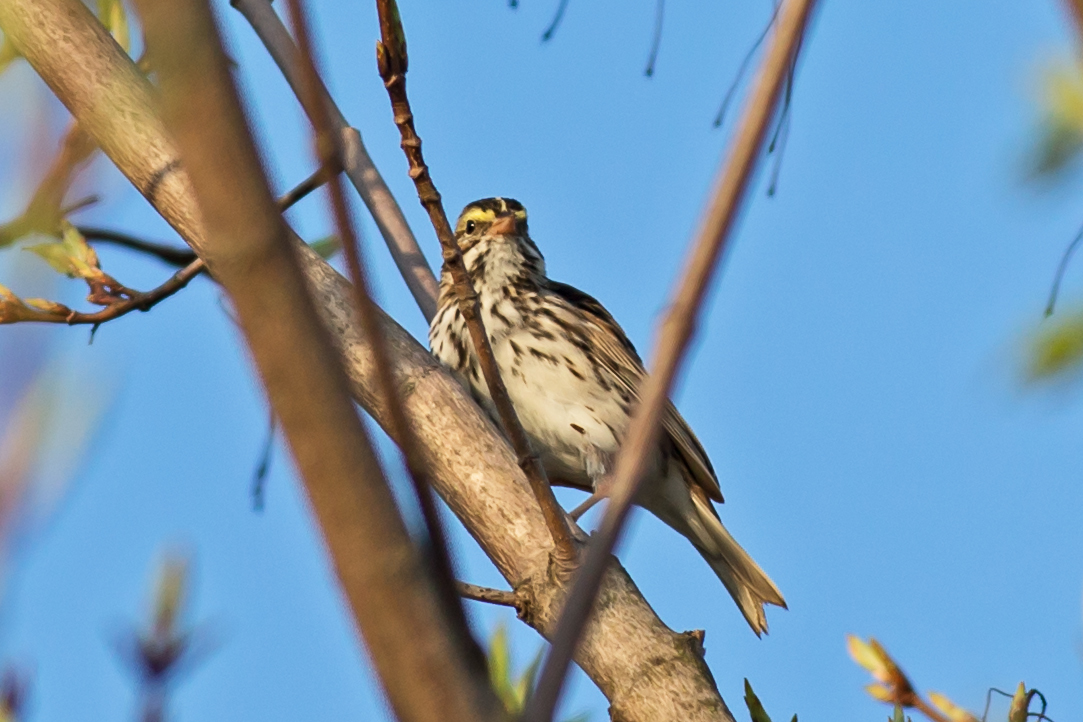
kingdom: Animalia
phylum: Chordata
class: Aves
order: Passeriformes
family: Passerellidae
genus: Passerculus
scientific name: Passerculus sandwichensis
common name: Savannah sparrow
